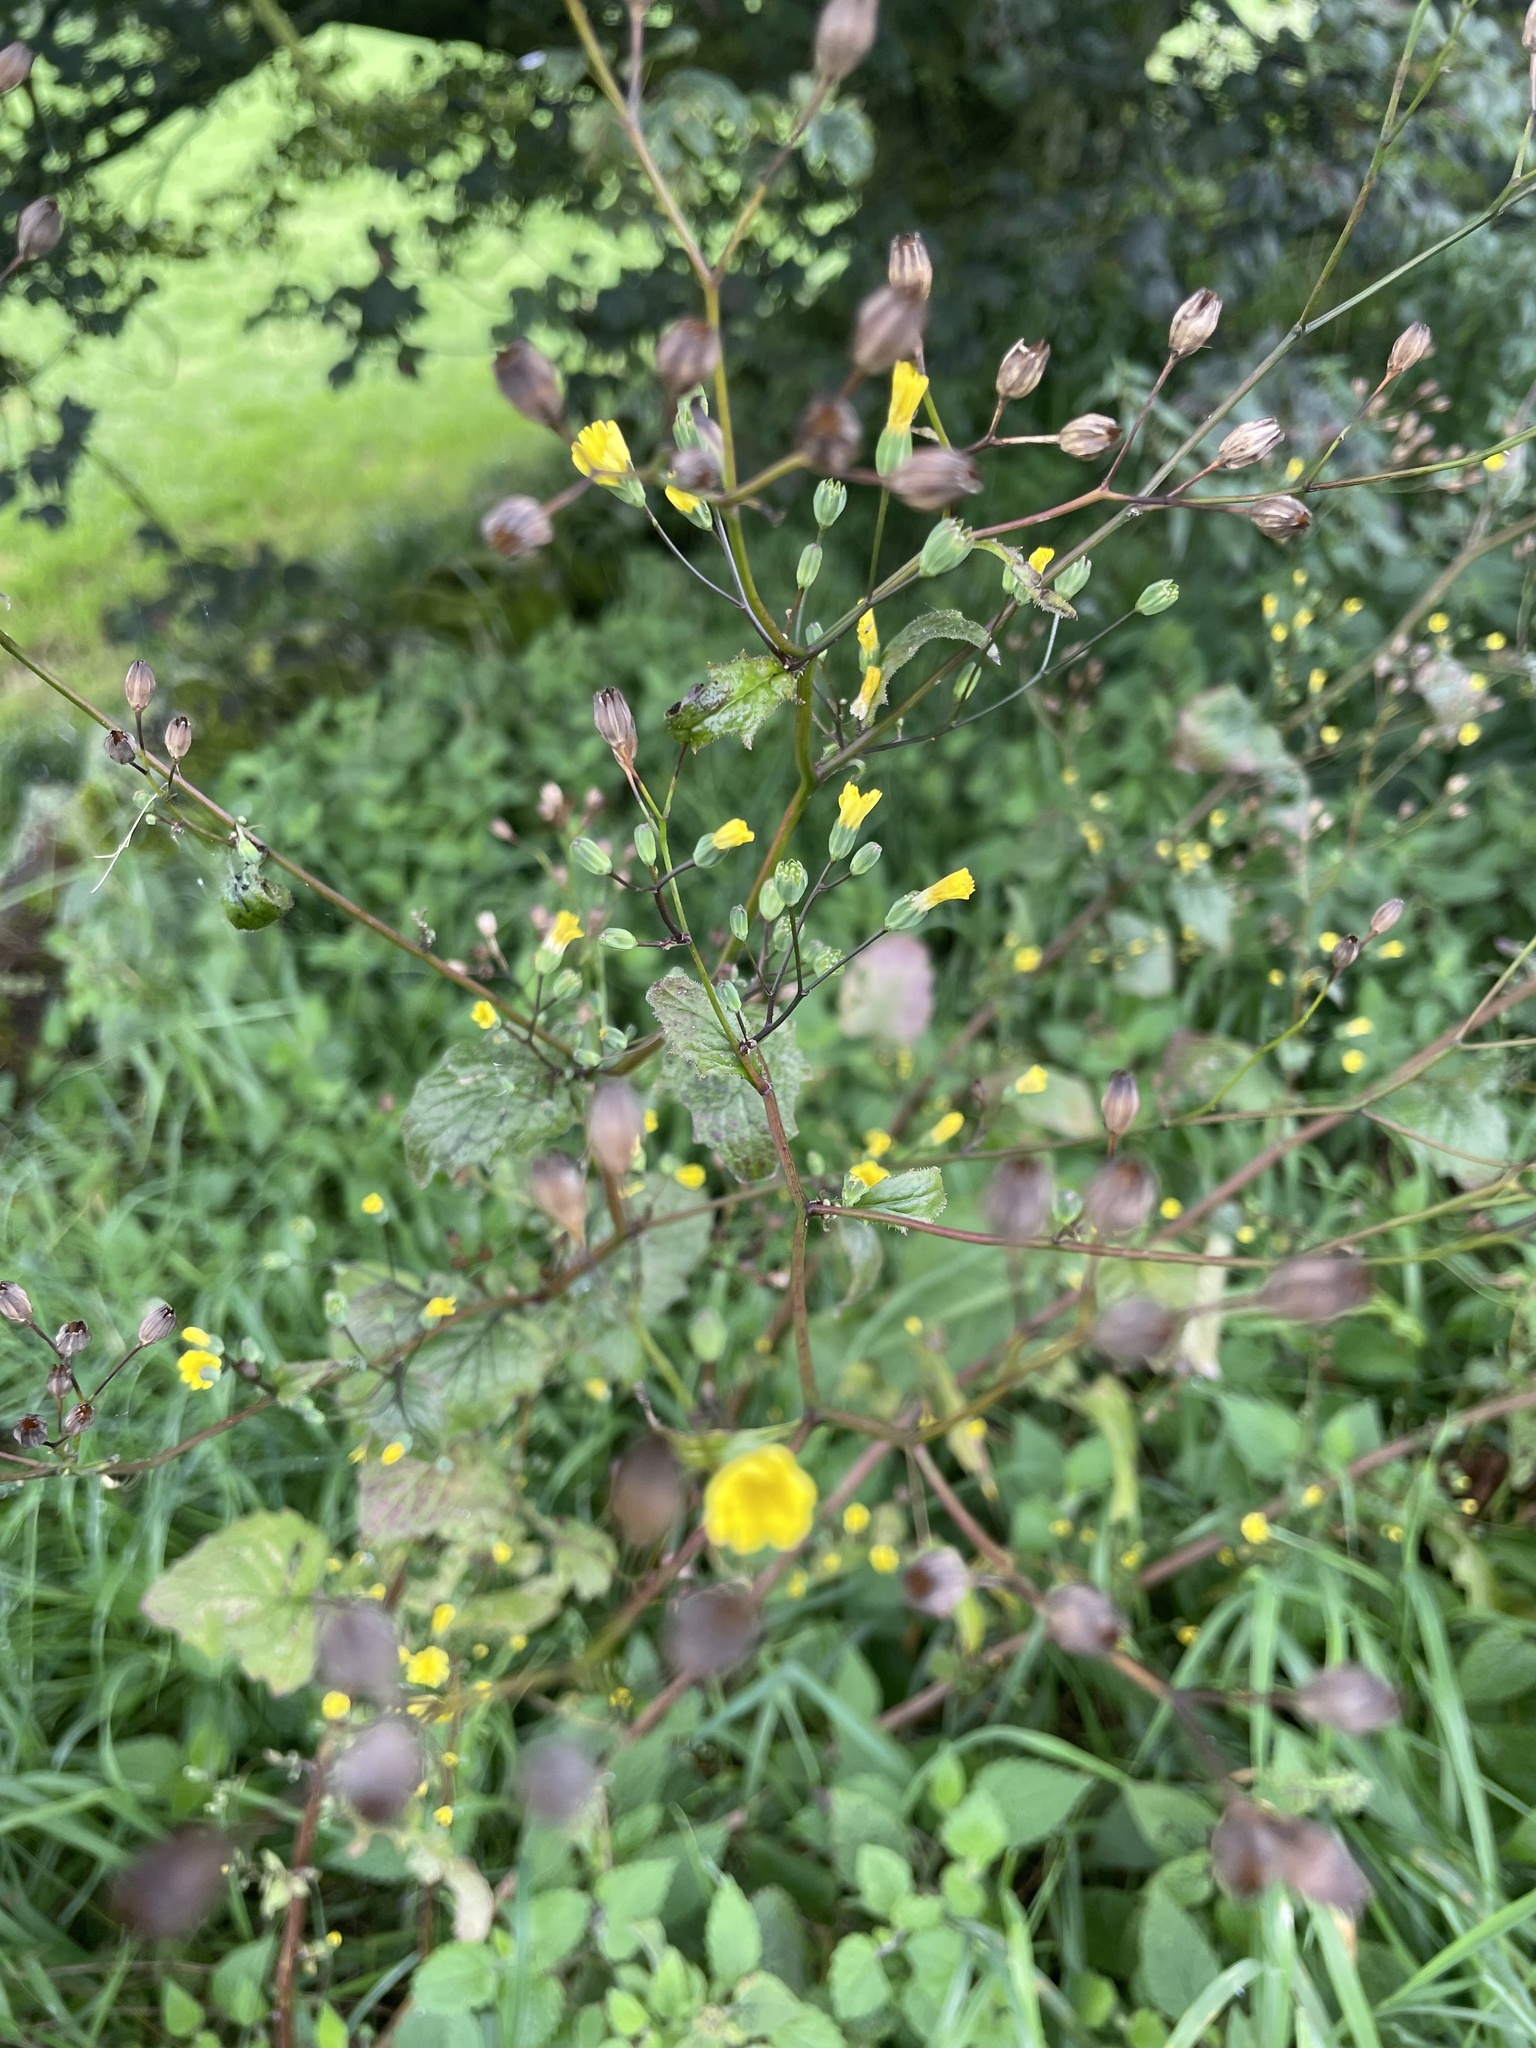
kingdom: Plantae
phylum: Tracheophyta
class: Magnoliopsida
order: Asterales
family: Asteraceae
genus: Lapsana
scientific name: Lapsana communis
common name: Nipplewort
